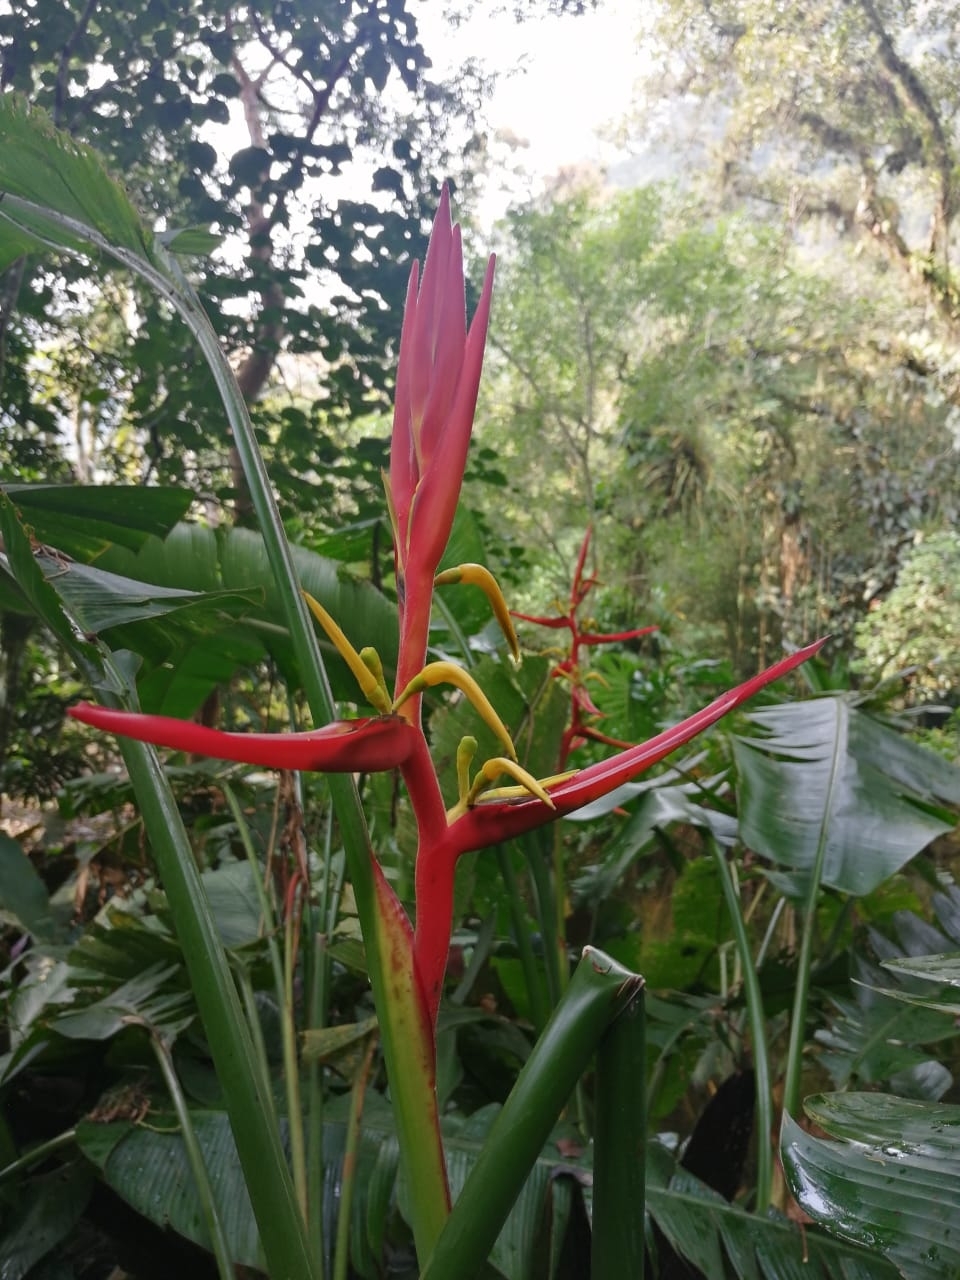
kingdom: Plantae
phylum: Tracheophyta
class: Liliopsida
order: Zingiberales
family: Heliconiaceae
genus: Heliconia
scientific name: Heliconia schiedeana
